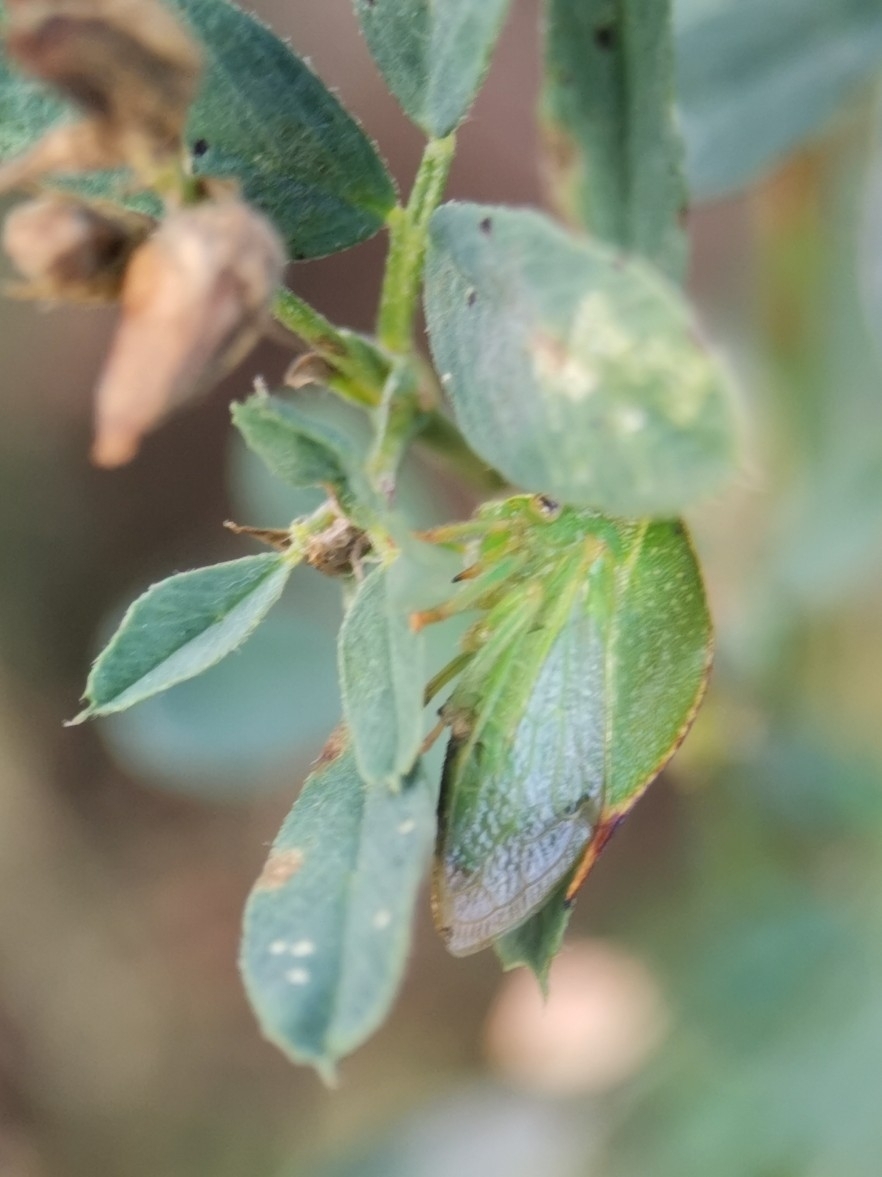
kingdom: Animalia
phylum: Arthropoda
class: Insecta
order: Hemiptera
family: Membracidae
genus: Stictocephala
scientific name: Stictocephala bisonia
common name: American buffalo treehopper
